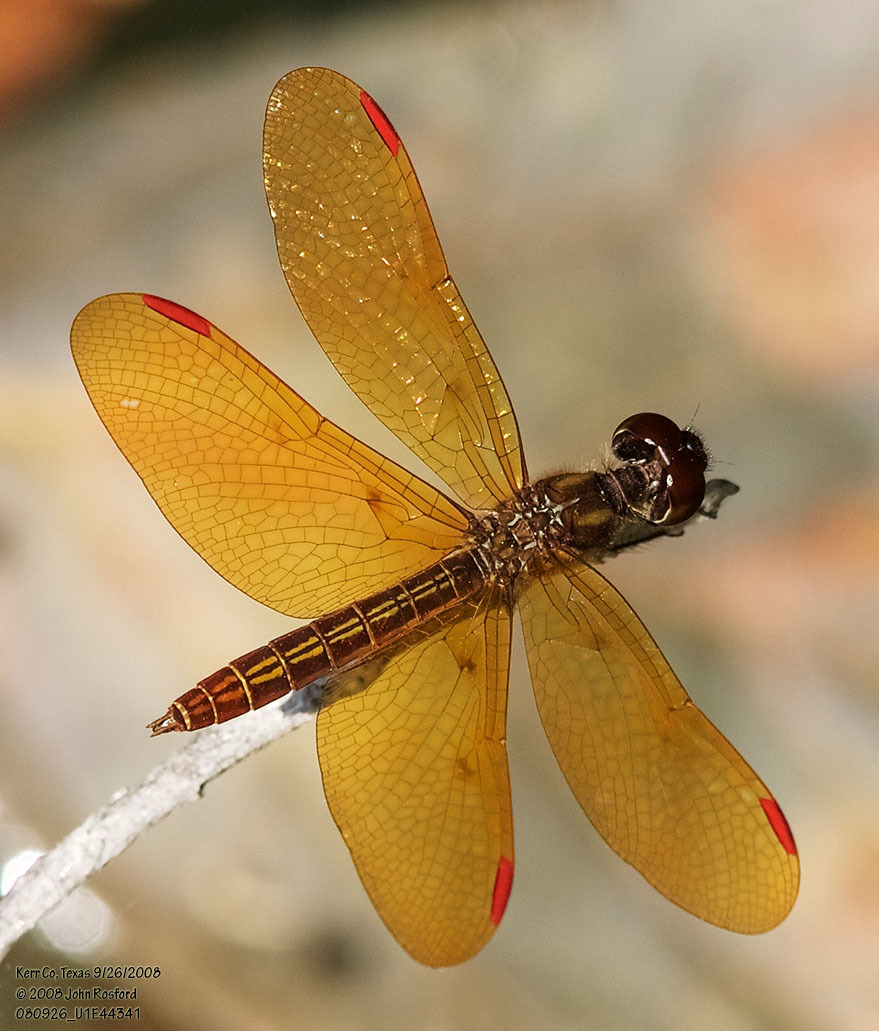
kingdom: Animalia
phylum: Arthropoda
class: Insecta
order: Odonata
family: Libellulidae
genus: Perithemis
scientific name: Perithemis domitia
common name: Slough amberwing
